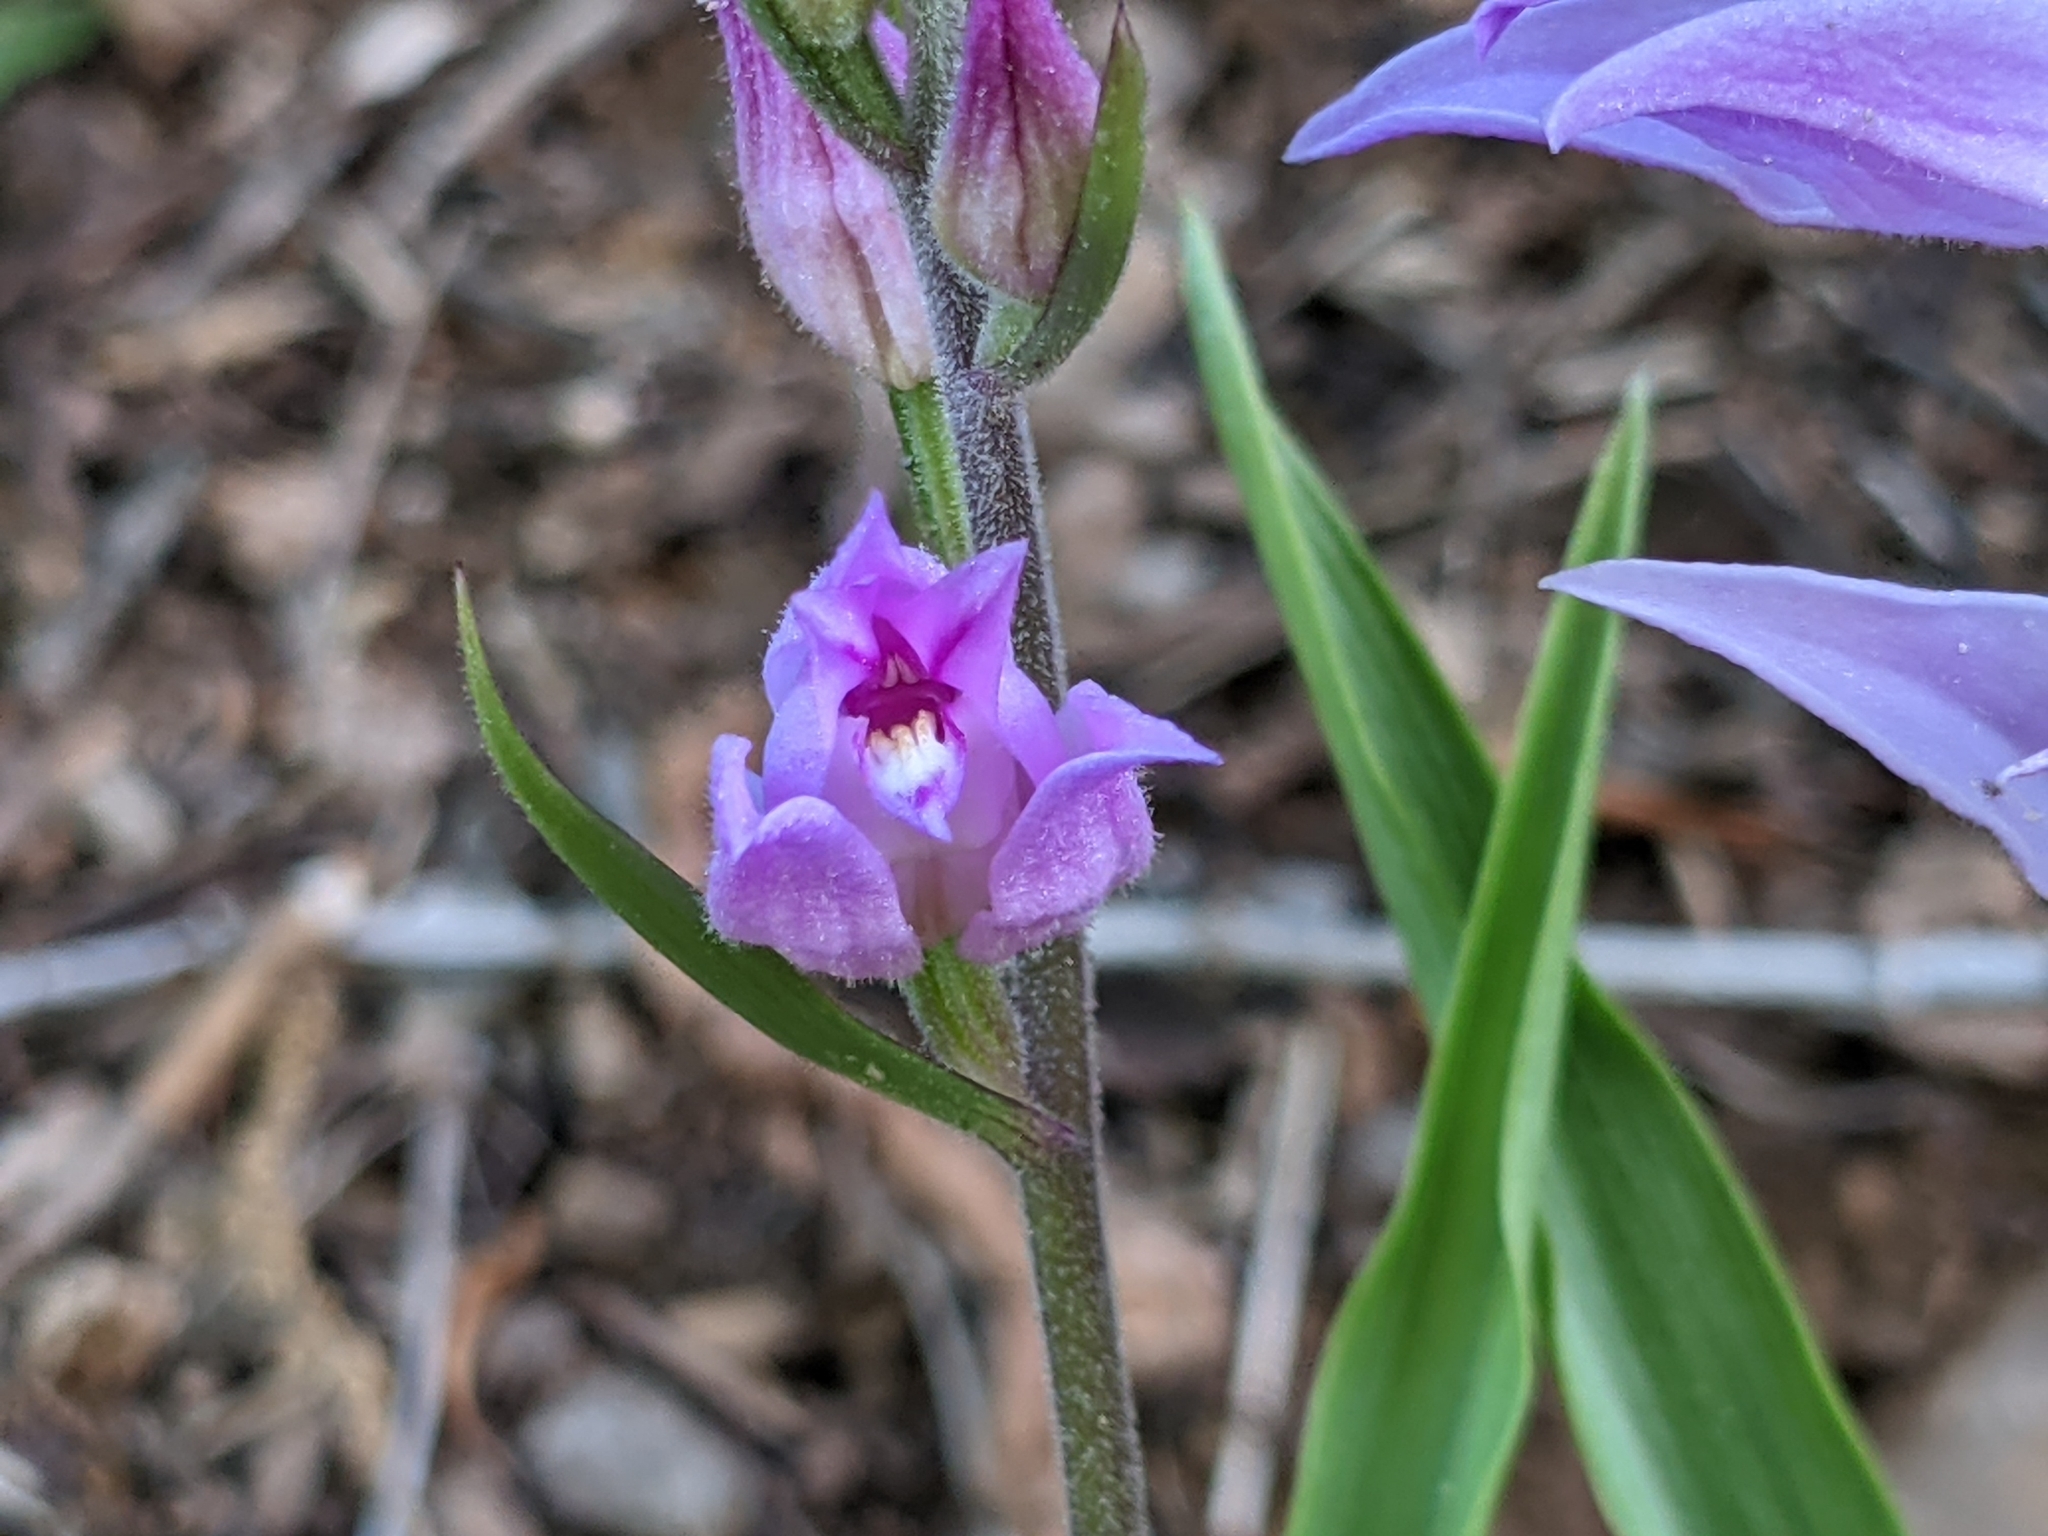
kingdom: Plantae
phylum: Tracheophyta
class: Liliopsida
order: Asparagales
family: Orchidaceae
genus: Cephalanthera
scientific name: Cephalanthera rubra
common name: Red helleborine
